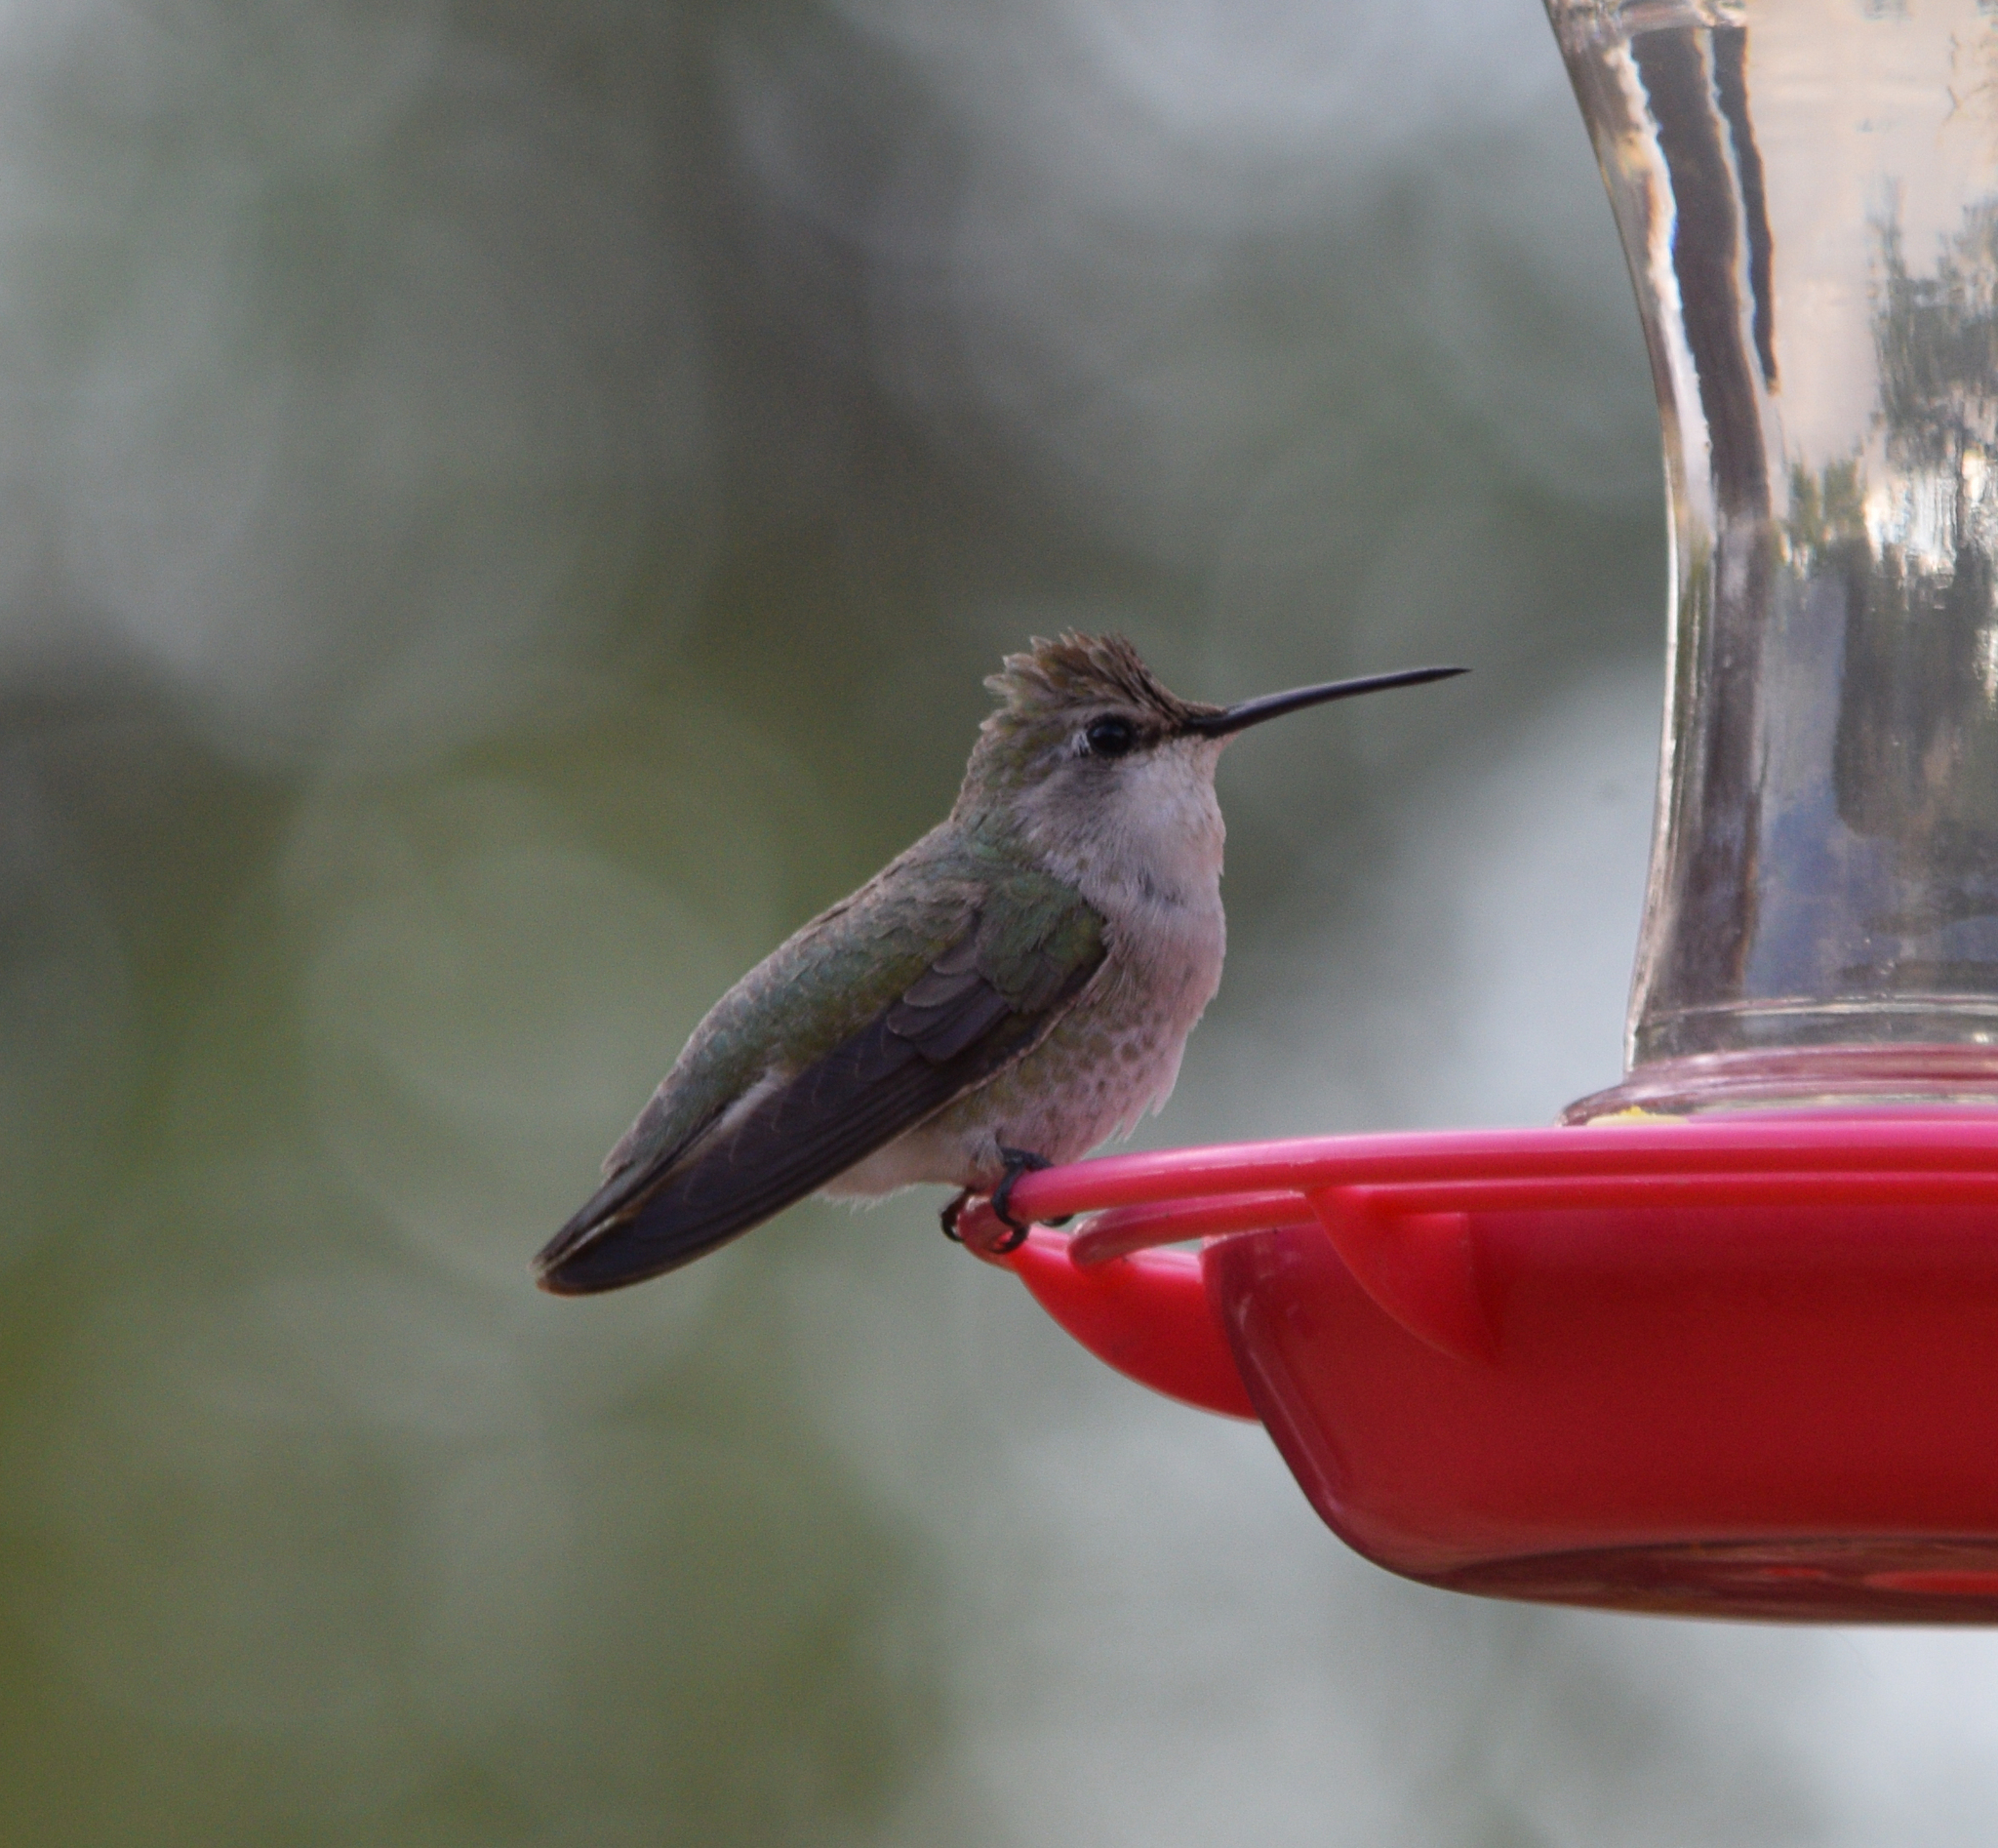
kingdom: Animalia
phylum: Chordata
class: Aves
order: Apodiformes
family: Trochilidae
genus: Calypte
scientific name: Calypte costae
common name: Costa's hummingbird
